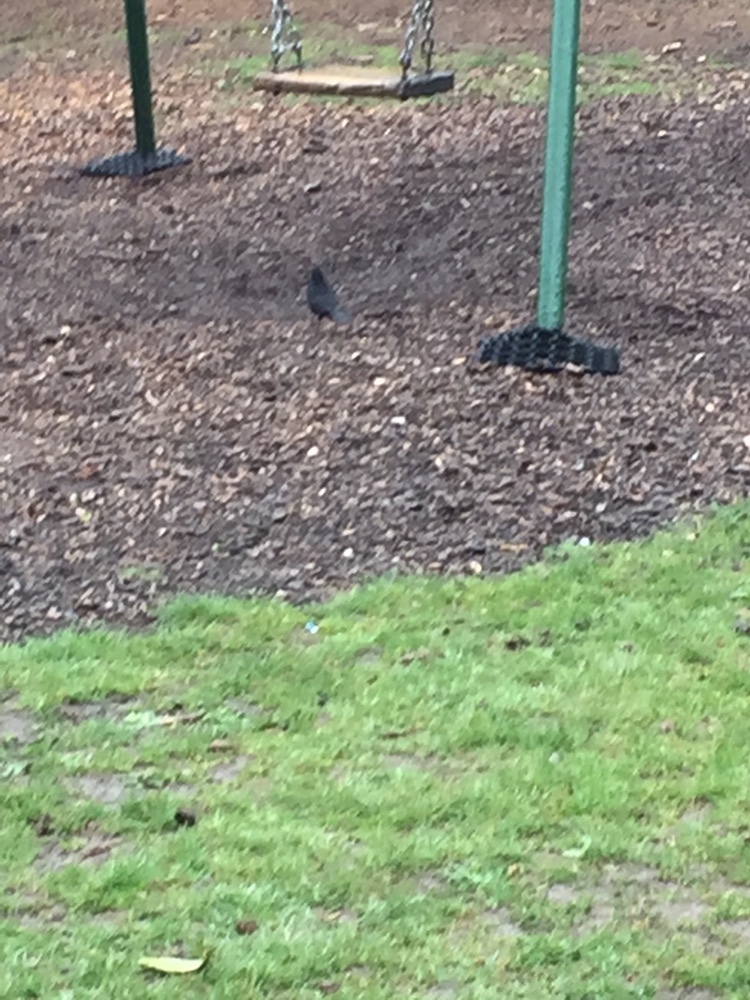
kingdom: Animalia
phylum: Chordata
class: Aves
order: Passeriformes
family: Turdidae
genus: Turdus
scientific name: Turdus merula
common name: Common blackbird
